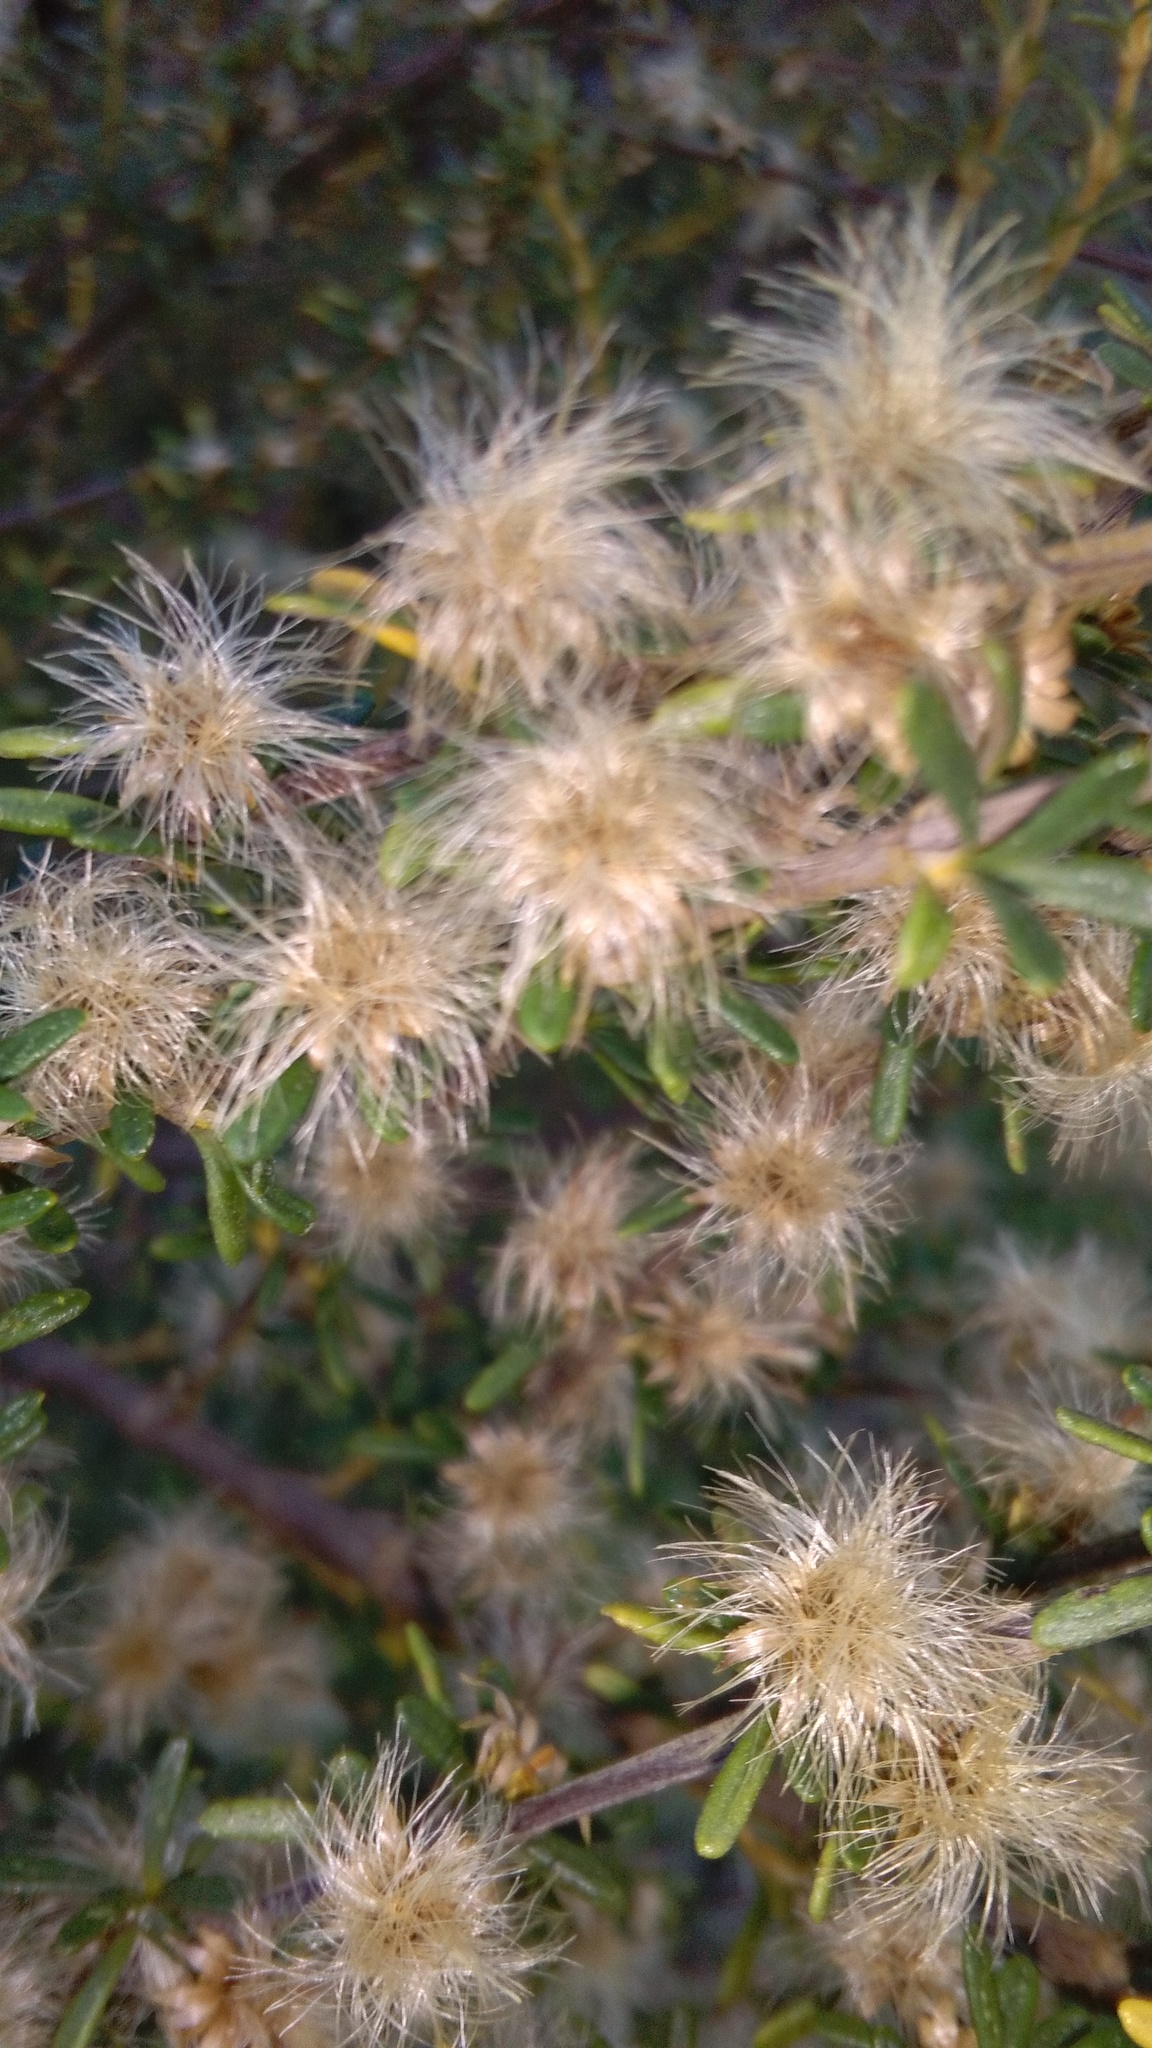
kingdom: Plantae
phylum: Tracheophyta
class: Magnoliopsida
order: Asterales
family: Asteraceae
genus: Olearia
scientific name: Olearia solandri
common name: Coastal daisybush
